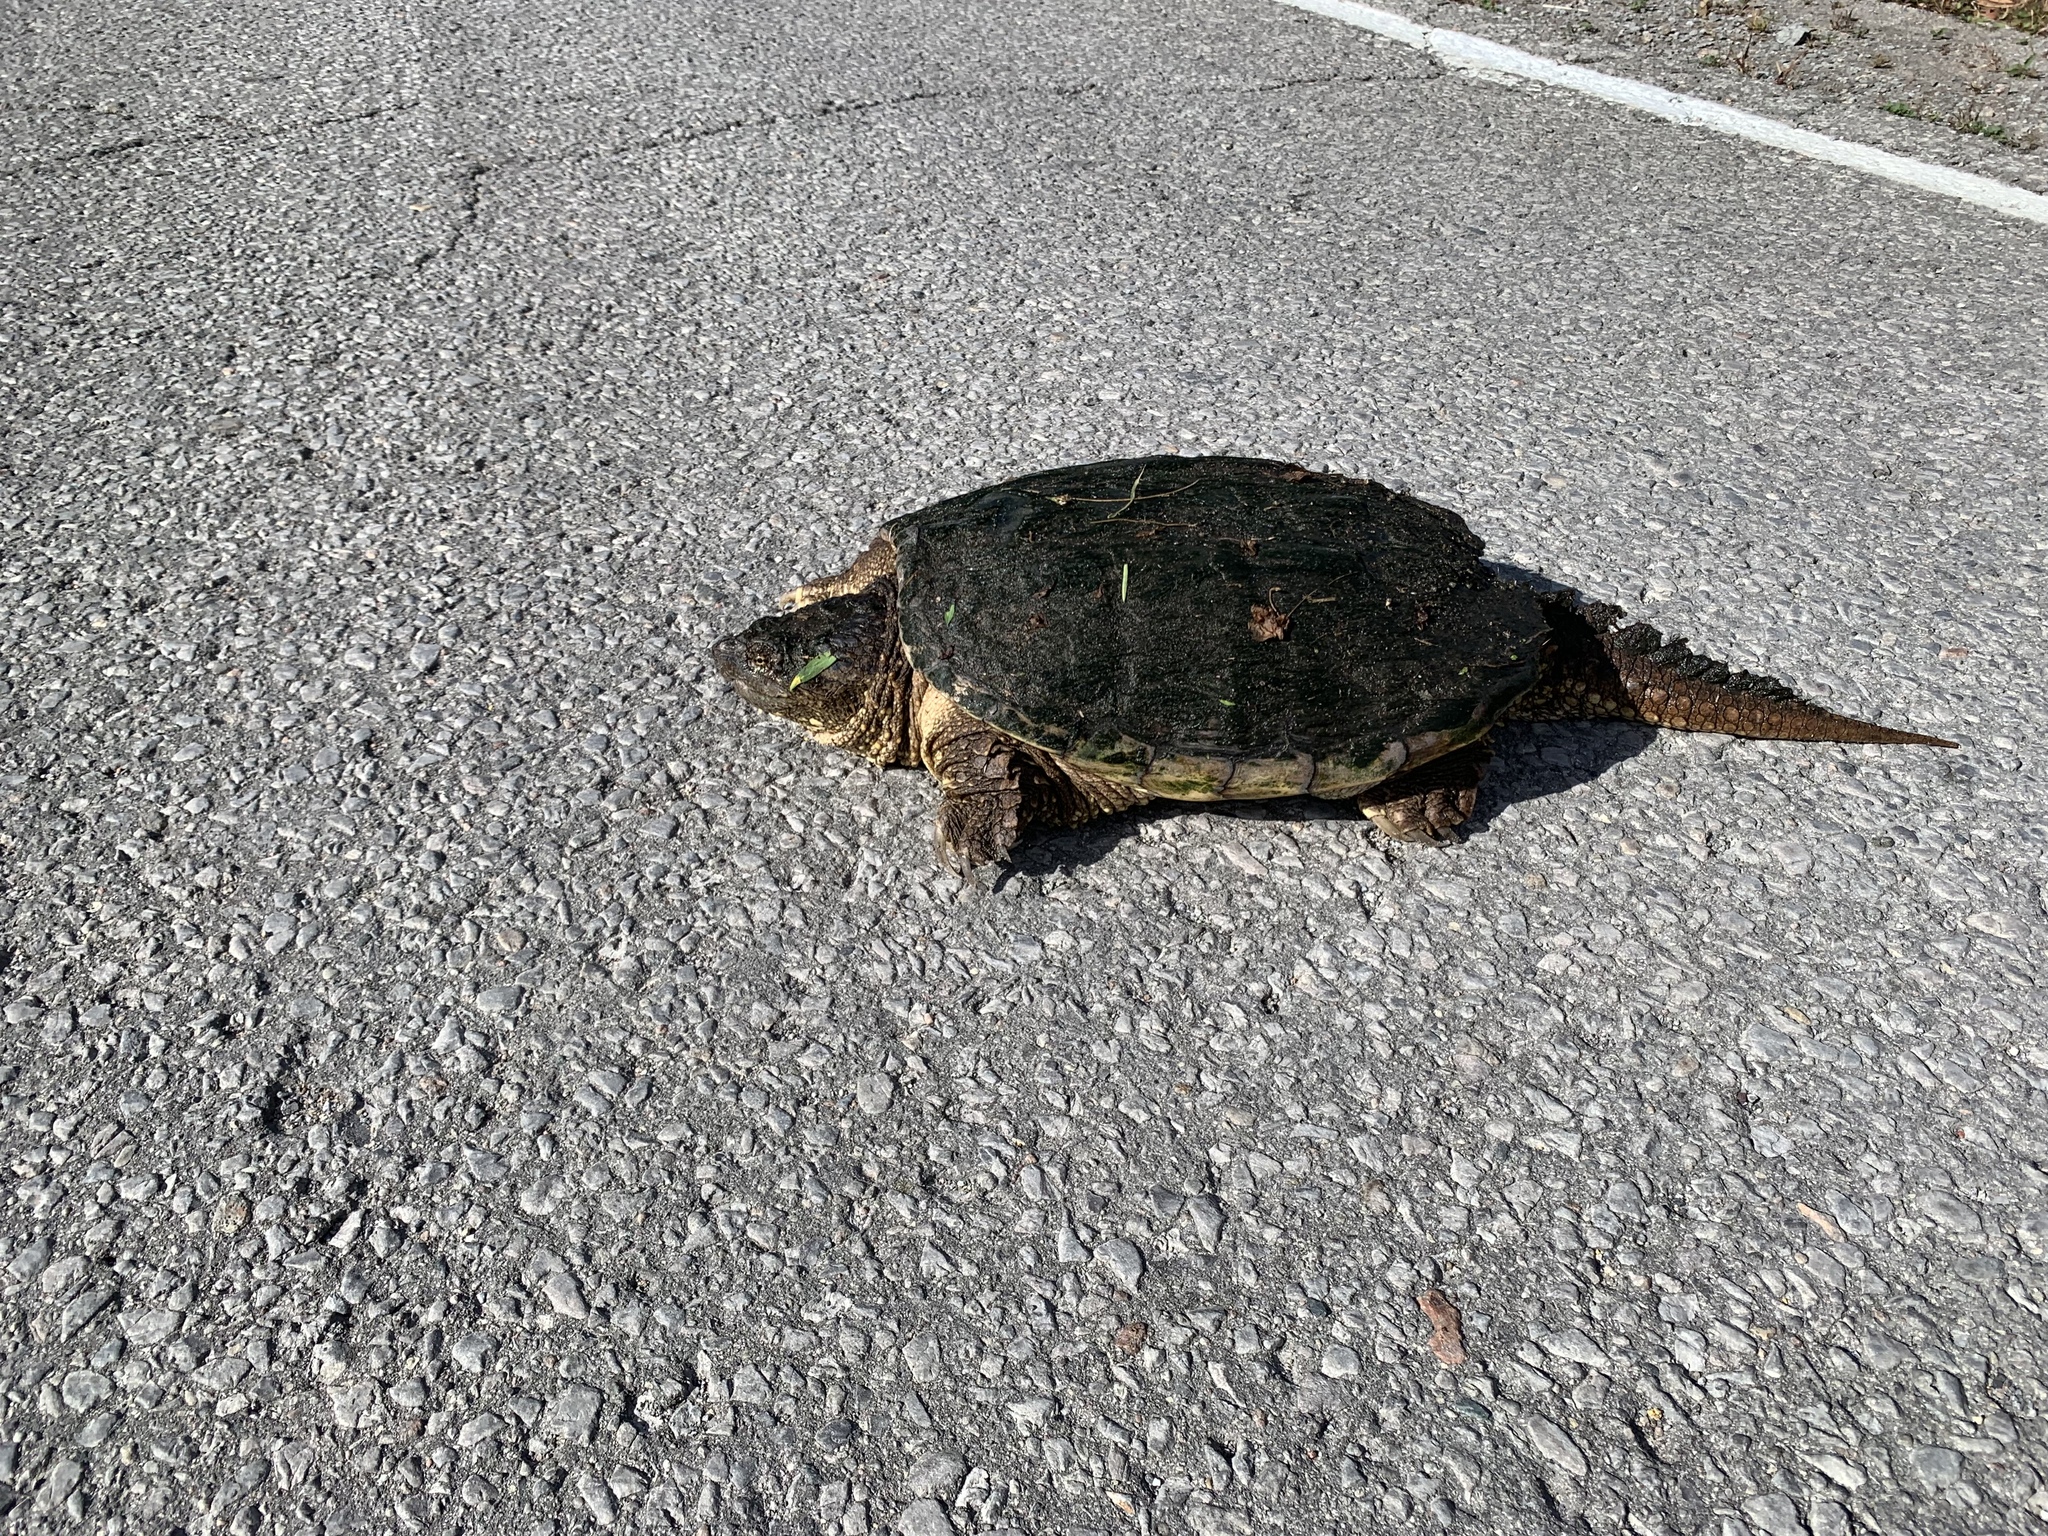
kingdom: Animalia
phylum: Chordata
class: Testudines
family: Chelydridae
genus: Chelydra
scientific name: Chelydra serpentina
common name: Common snapping turtle
